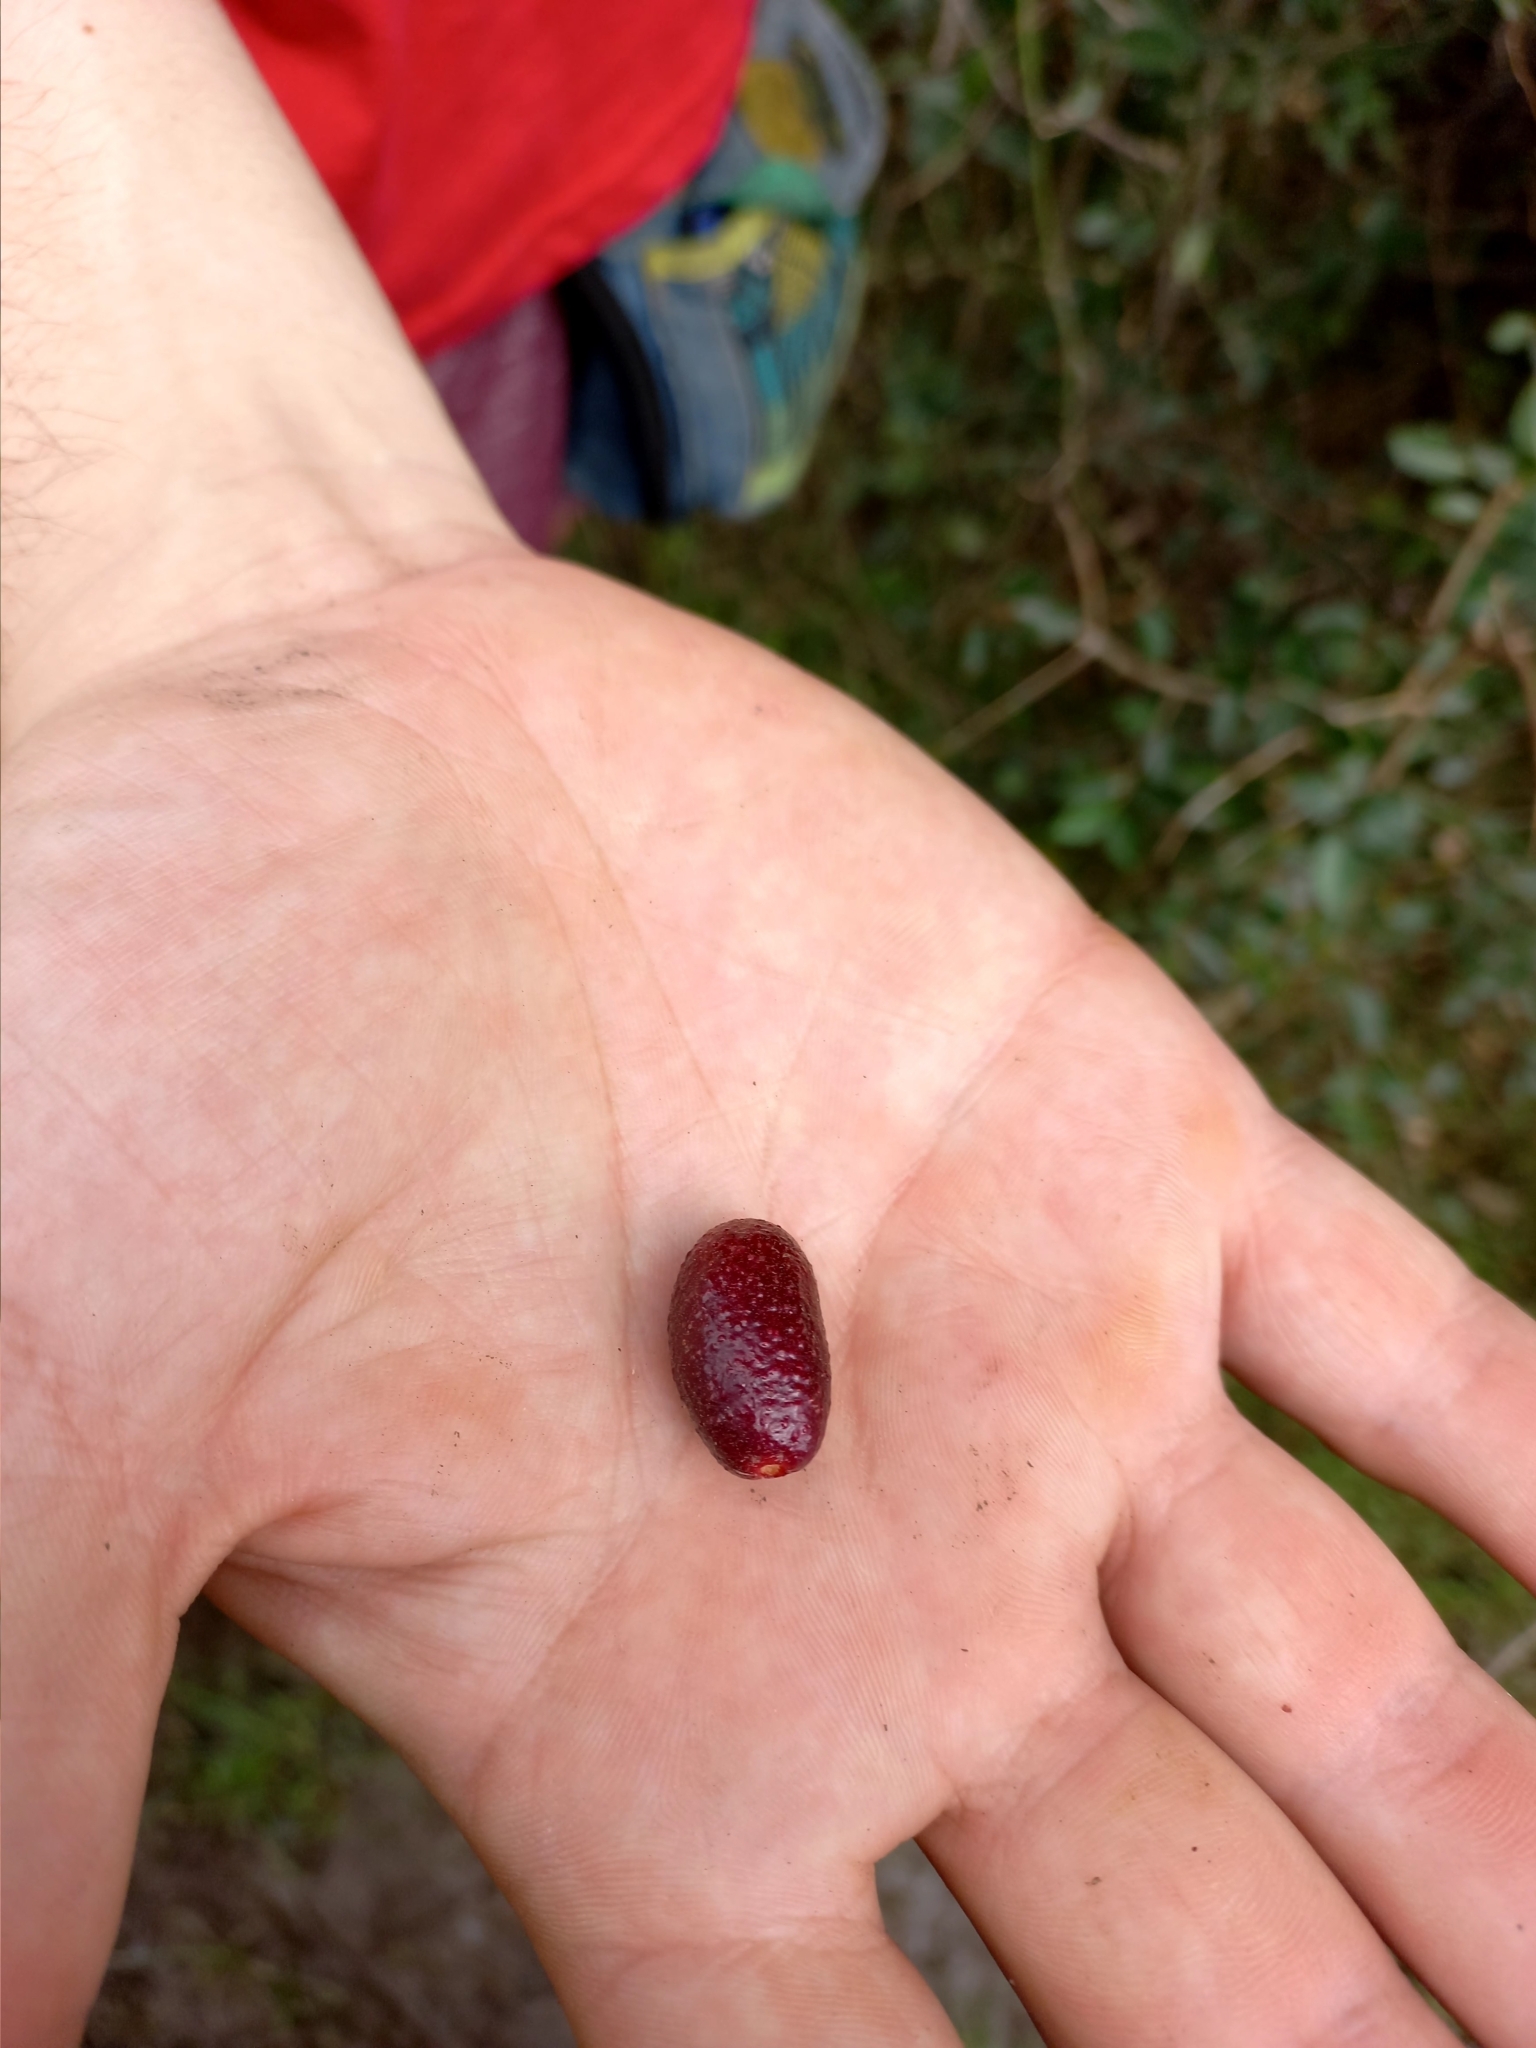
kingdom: Plantae
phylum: Tracheophyta
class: Magnoliopsida
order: Myrtales
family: Myrtaceae
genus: Eugenia
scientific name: Eugenia uruguayensis
